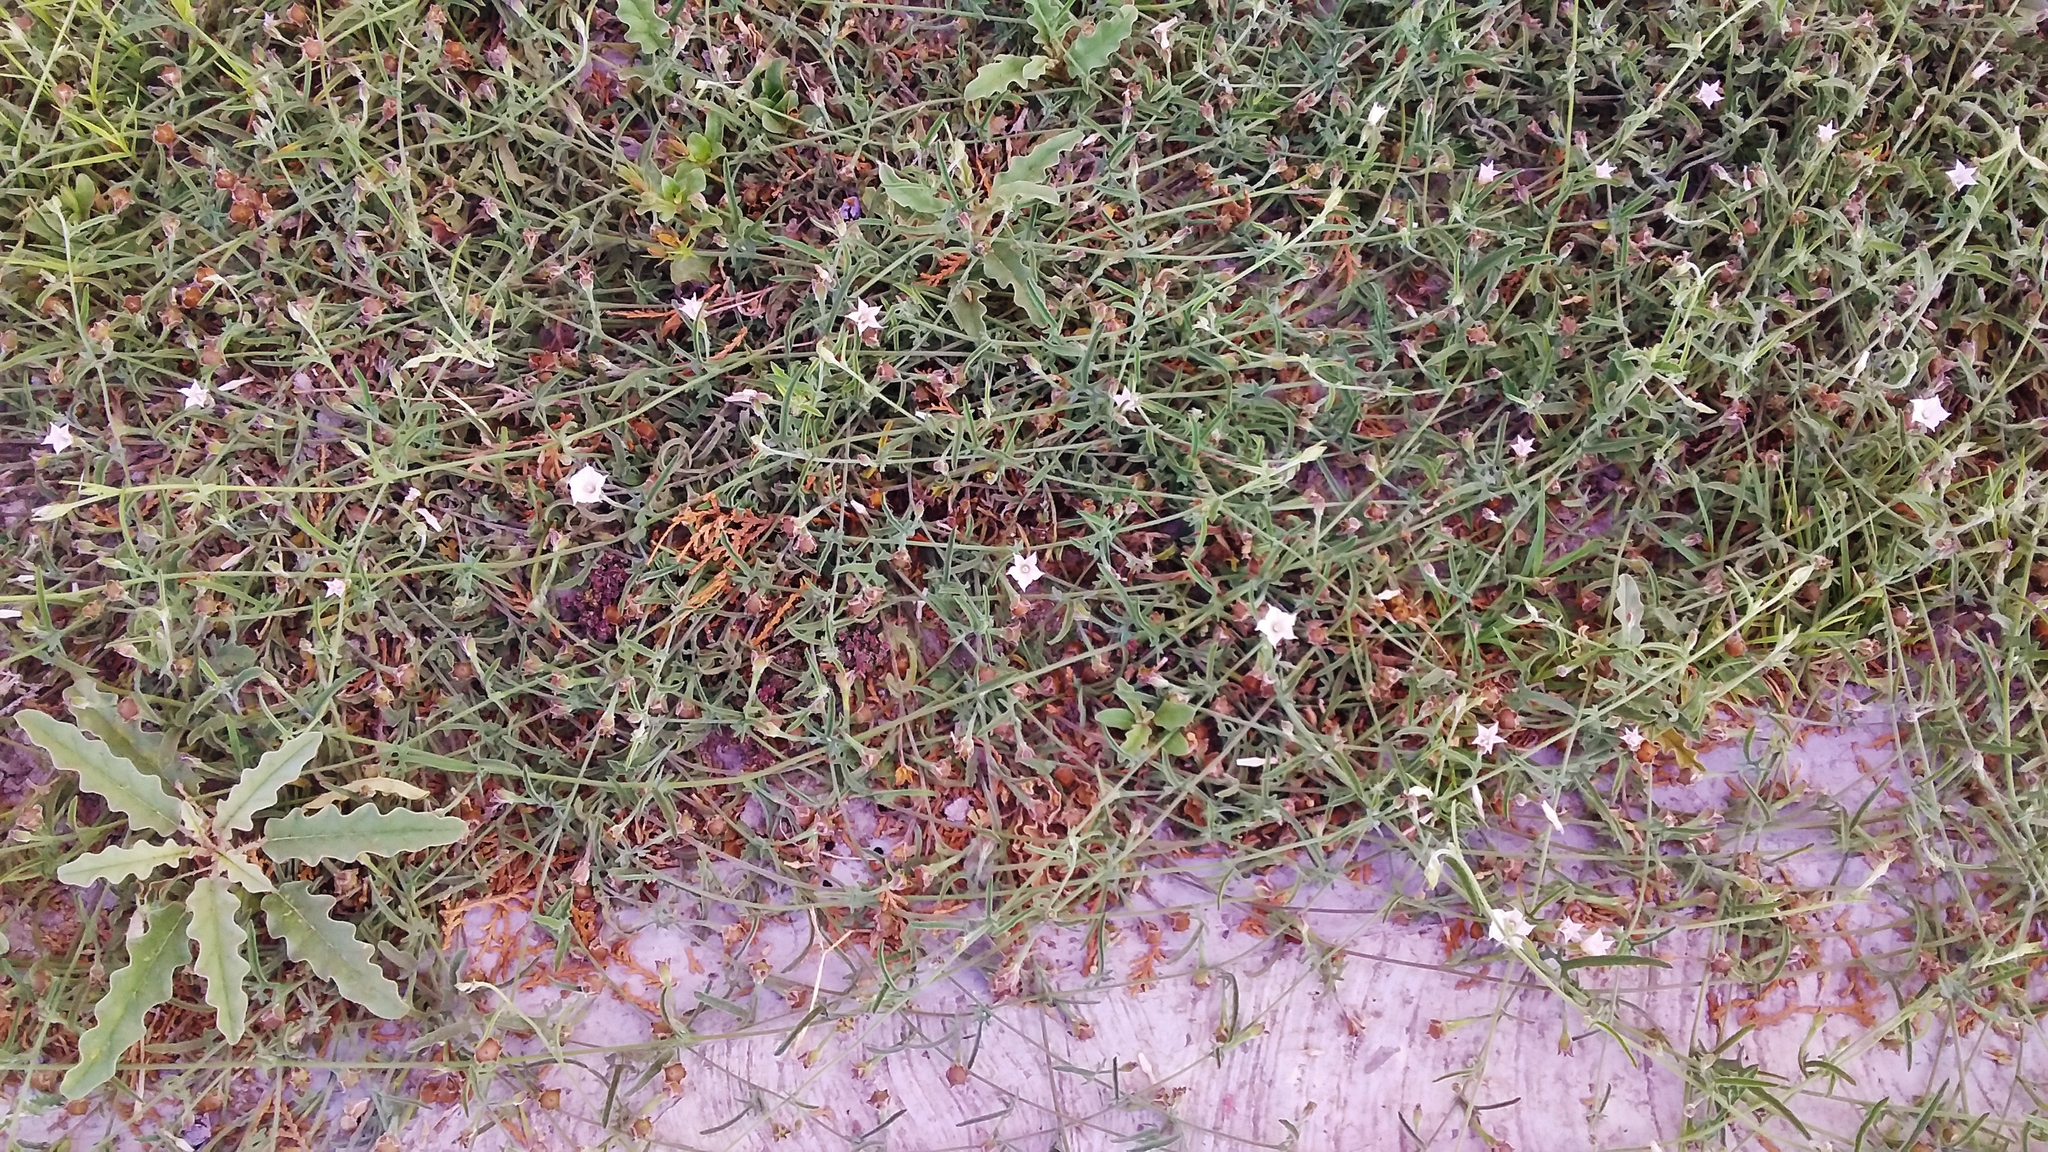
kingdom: Plantae
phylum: Tracheophyta
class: Magnoliopsida
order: Solanales
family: Convolvulaceae
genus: Convolvulus
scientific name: Convolvulus equitans
